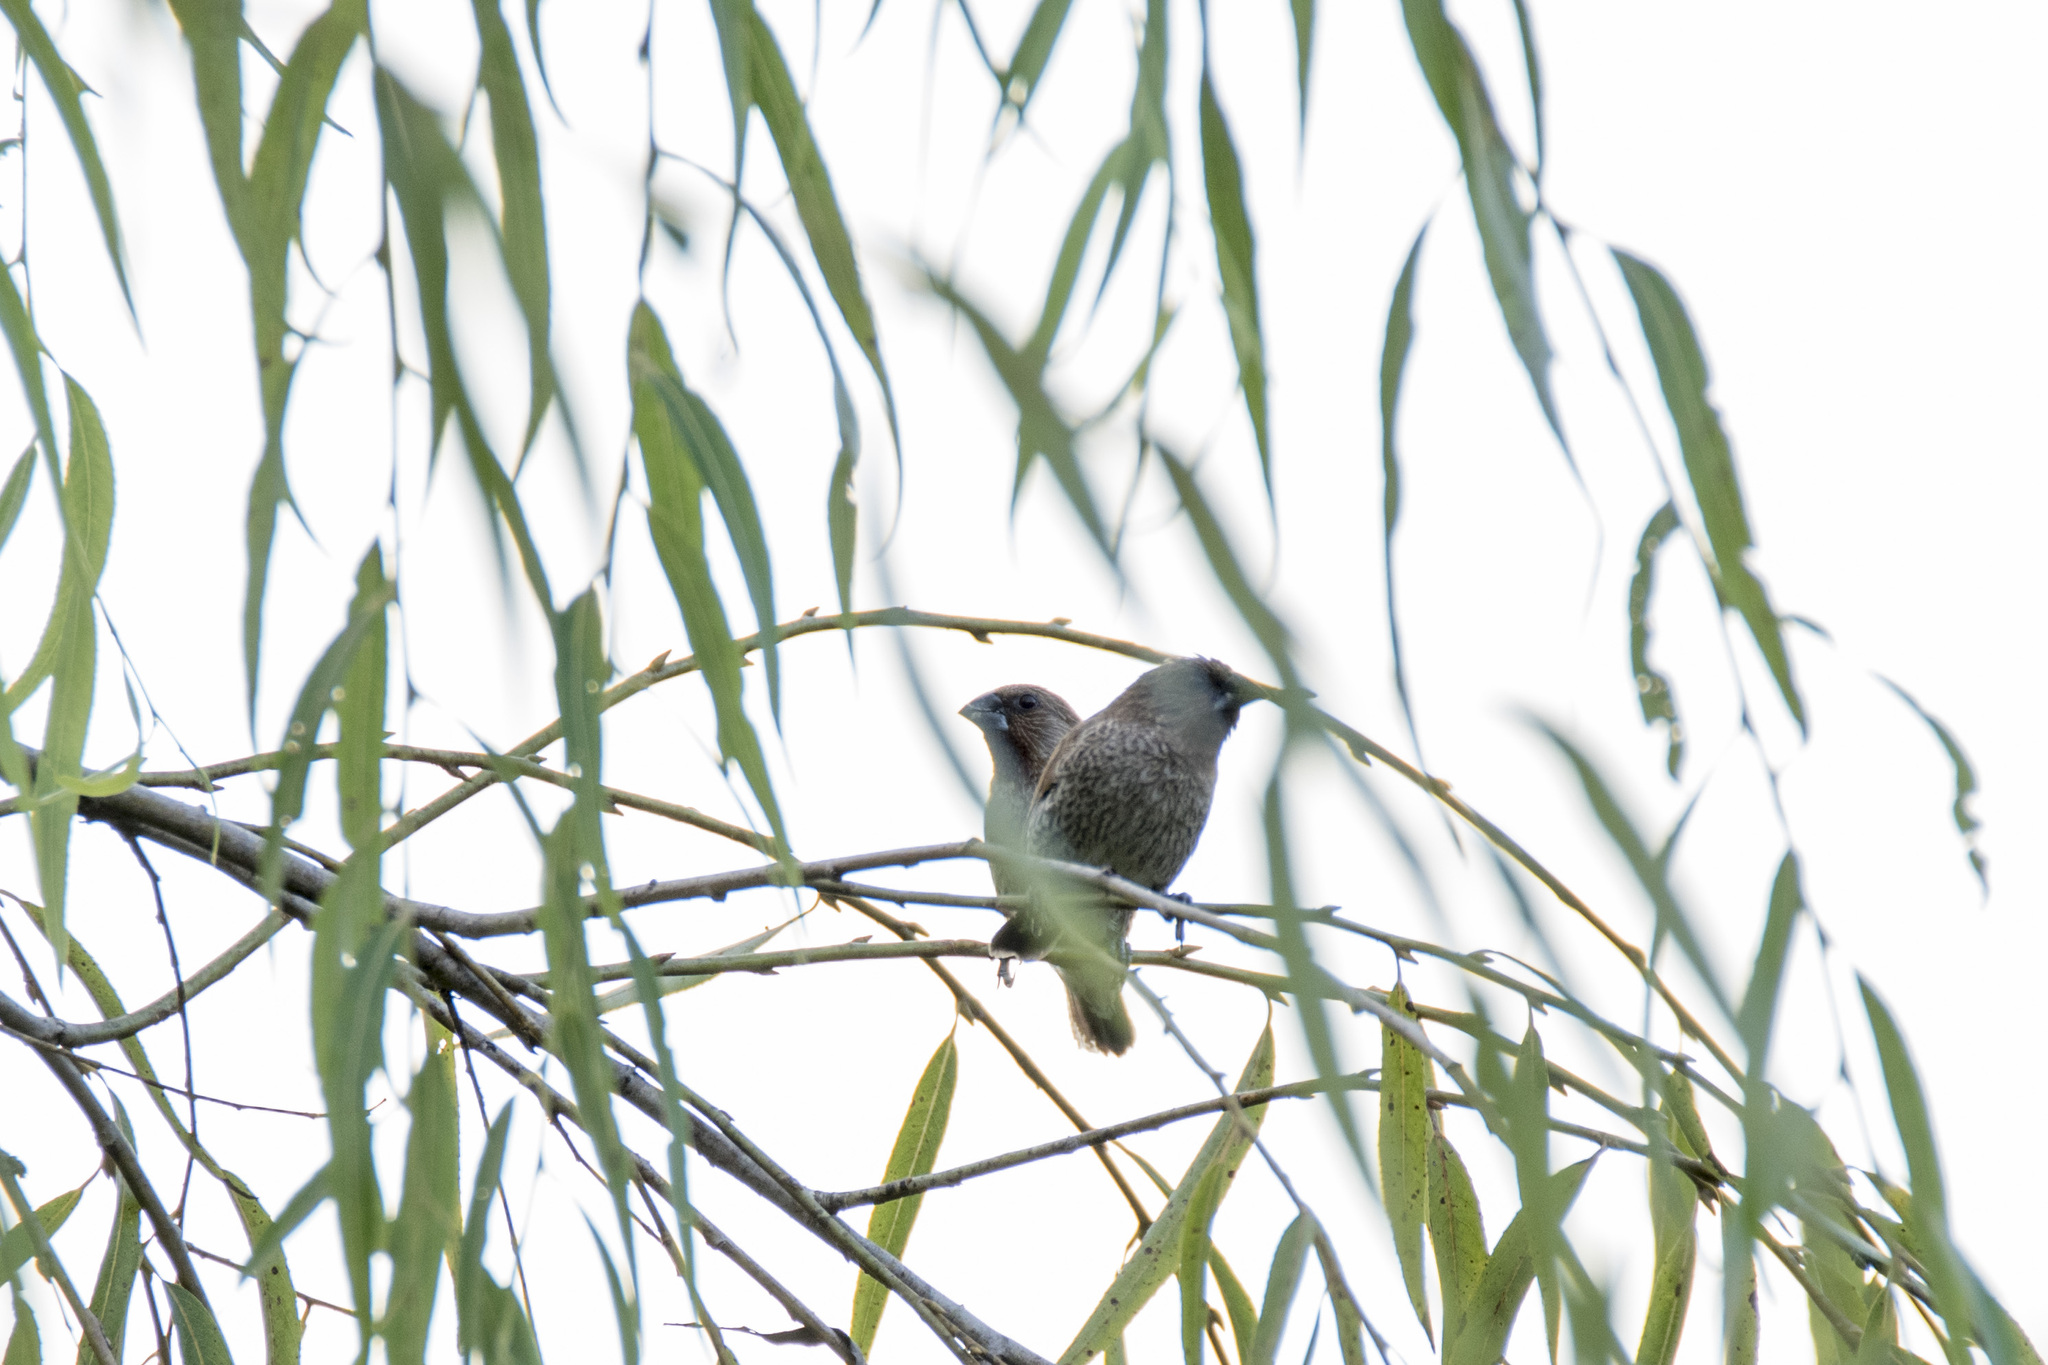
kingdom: Animalia
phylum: Chordata
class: Aves
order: Passeriformes
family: Estrildidae
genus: Lonchura
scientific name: Lonchura punctulata
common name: Scaly-breasted munia
